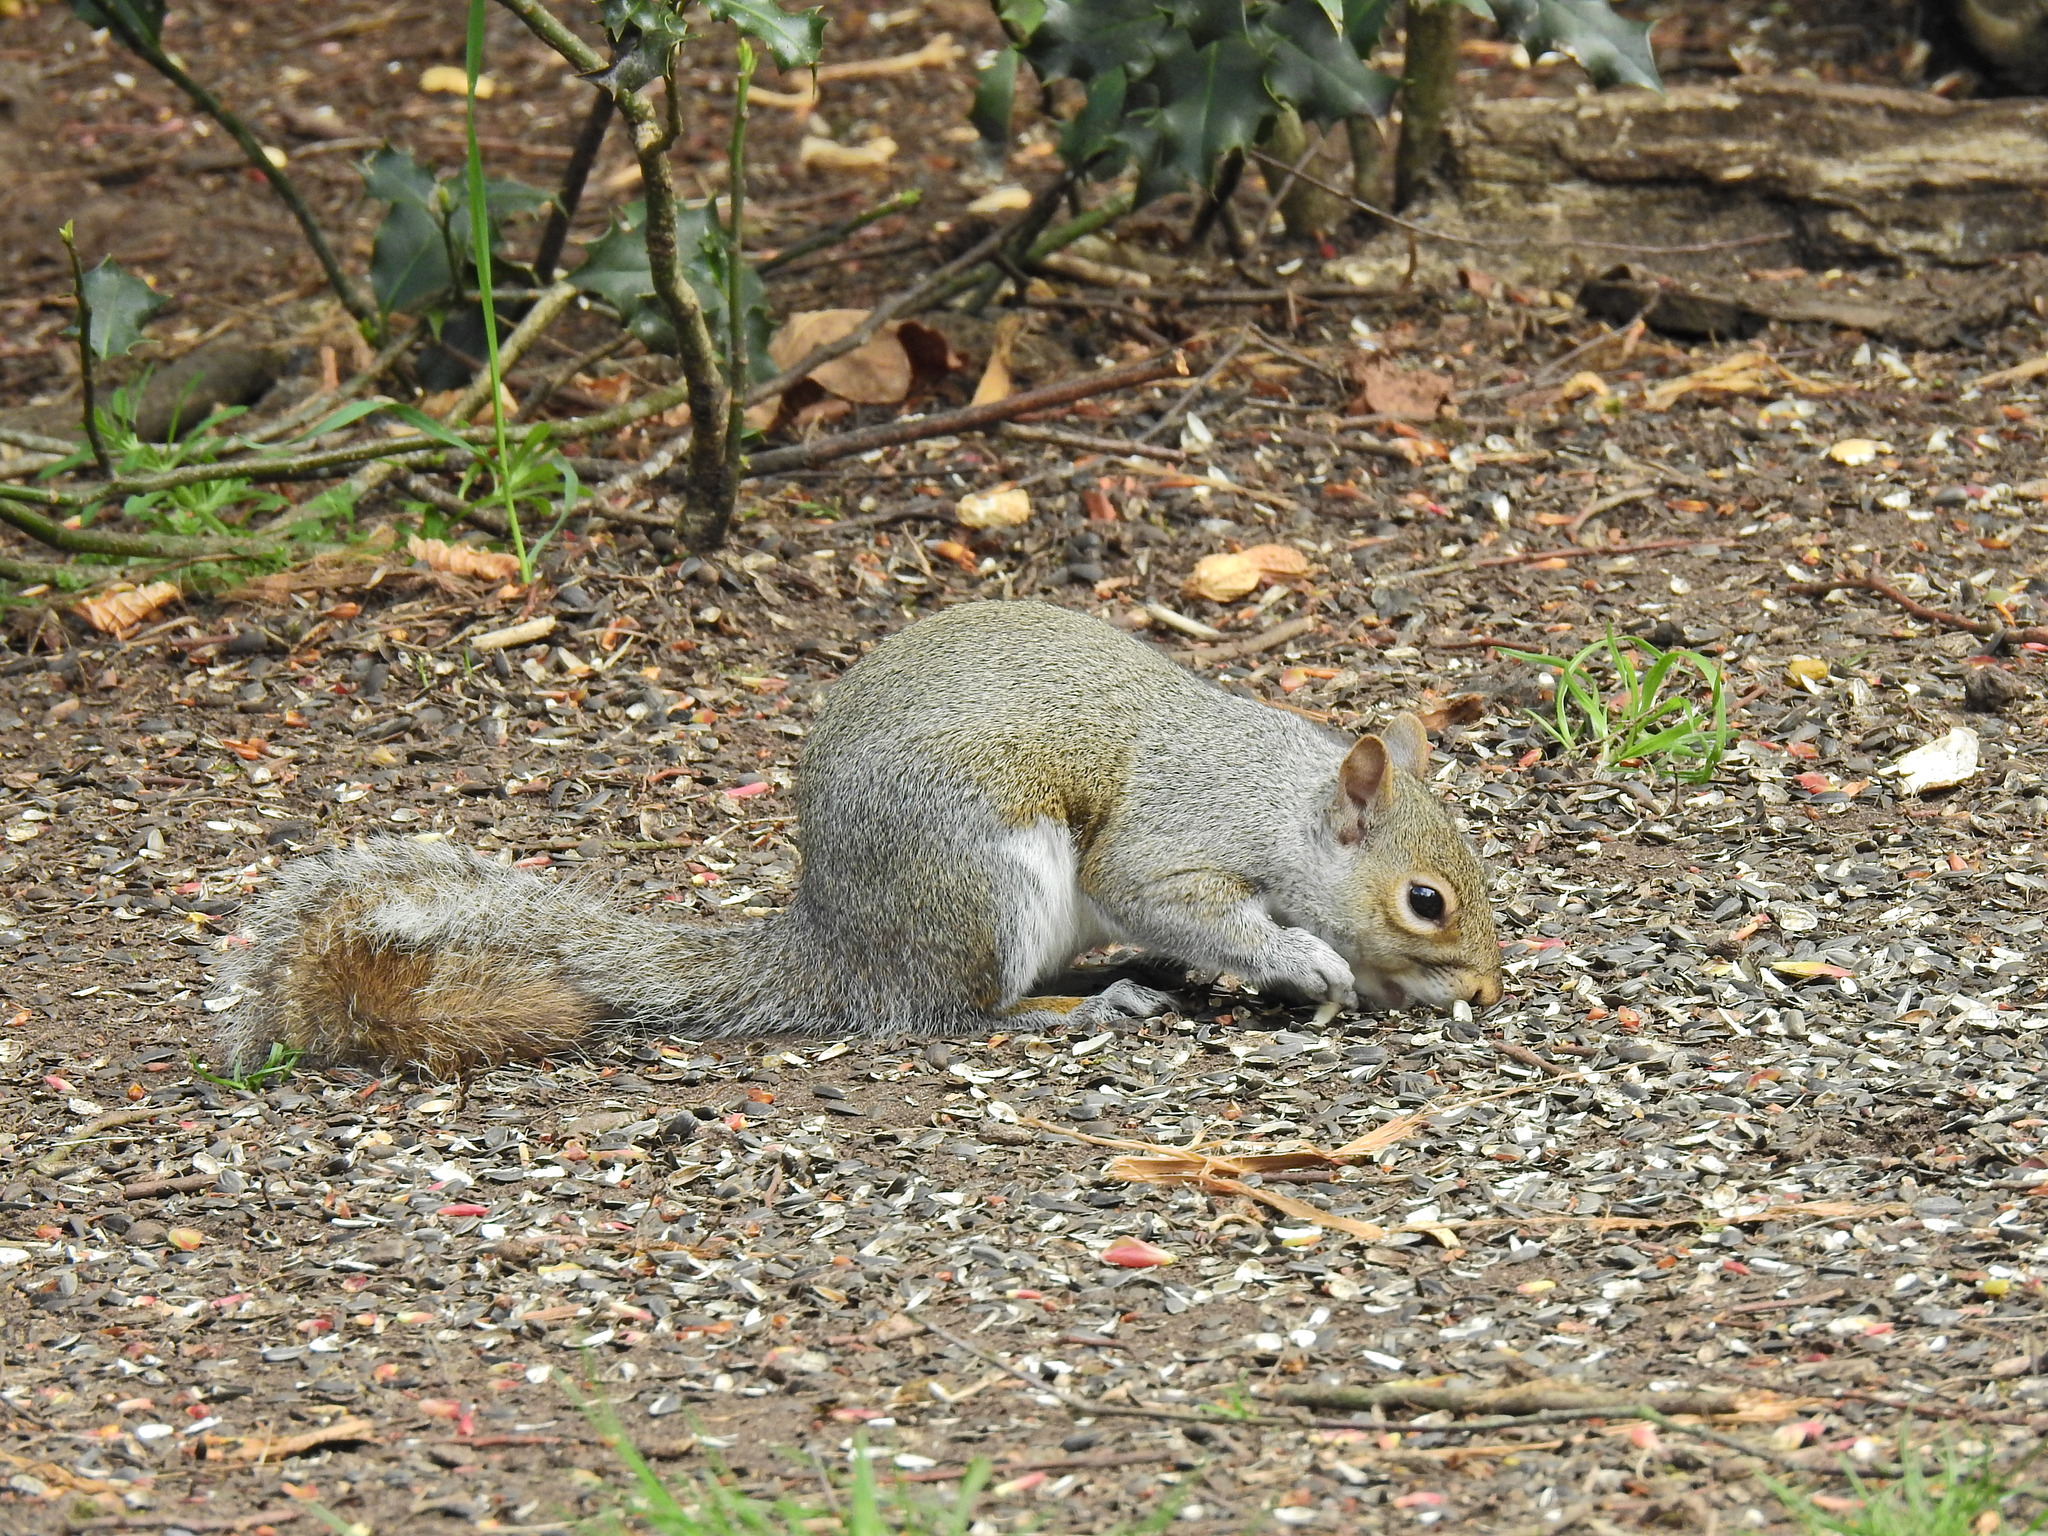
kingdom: Animalia
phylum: Chordata
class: Mammalia
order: Rodentia
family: Sciuridae
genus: Sciurus
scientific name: Sciurus carolinensis
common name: Eastern gray squirrel
